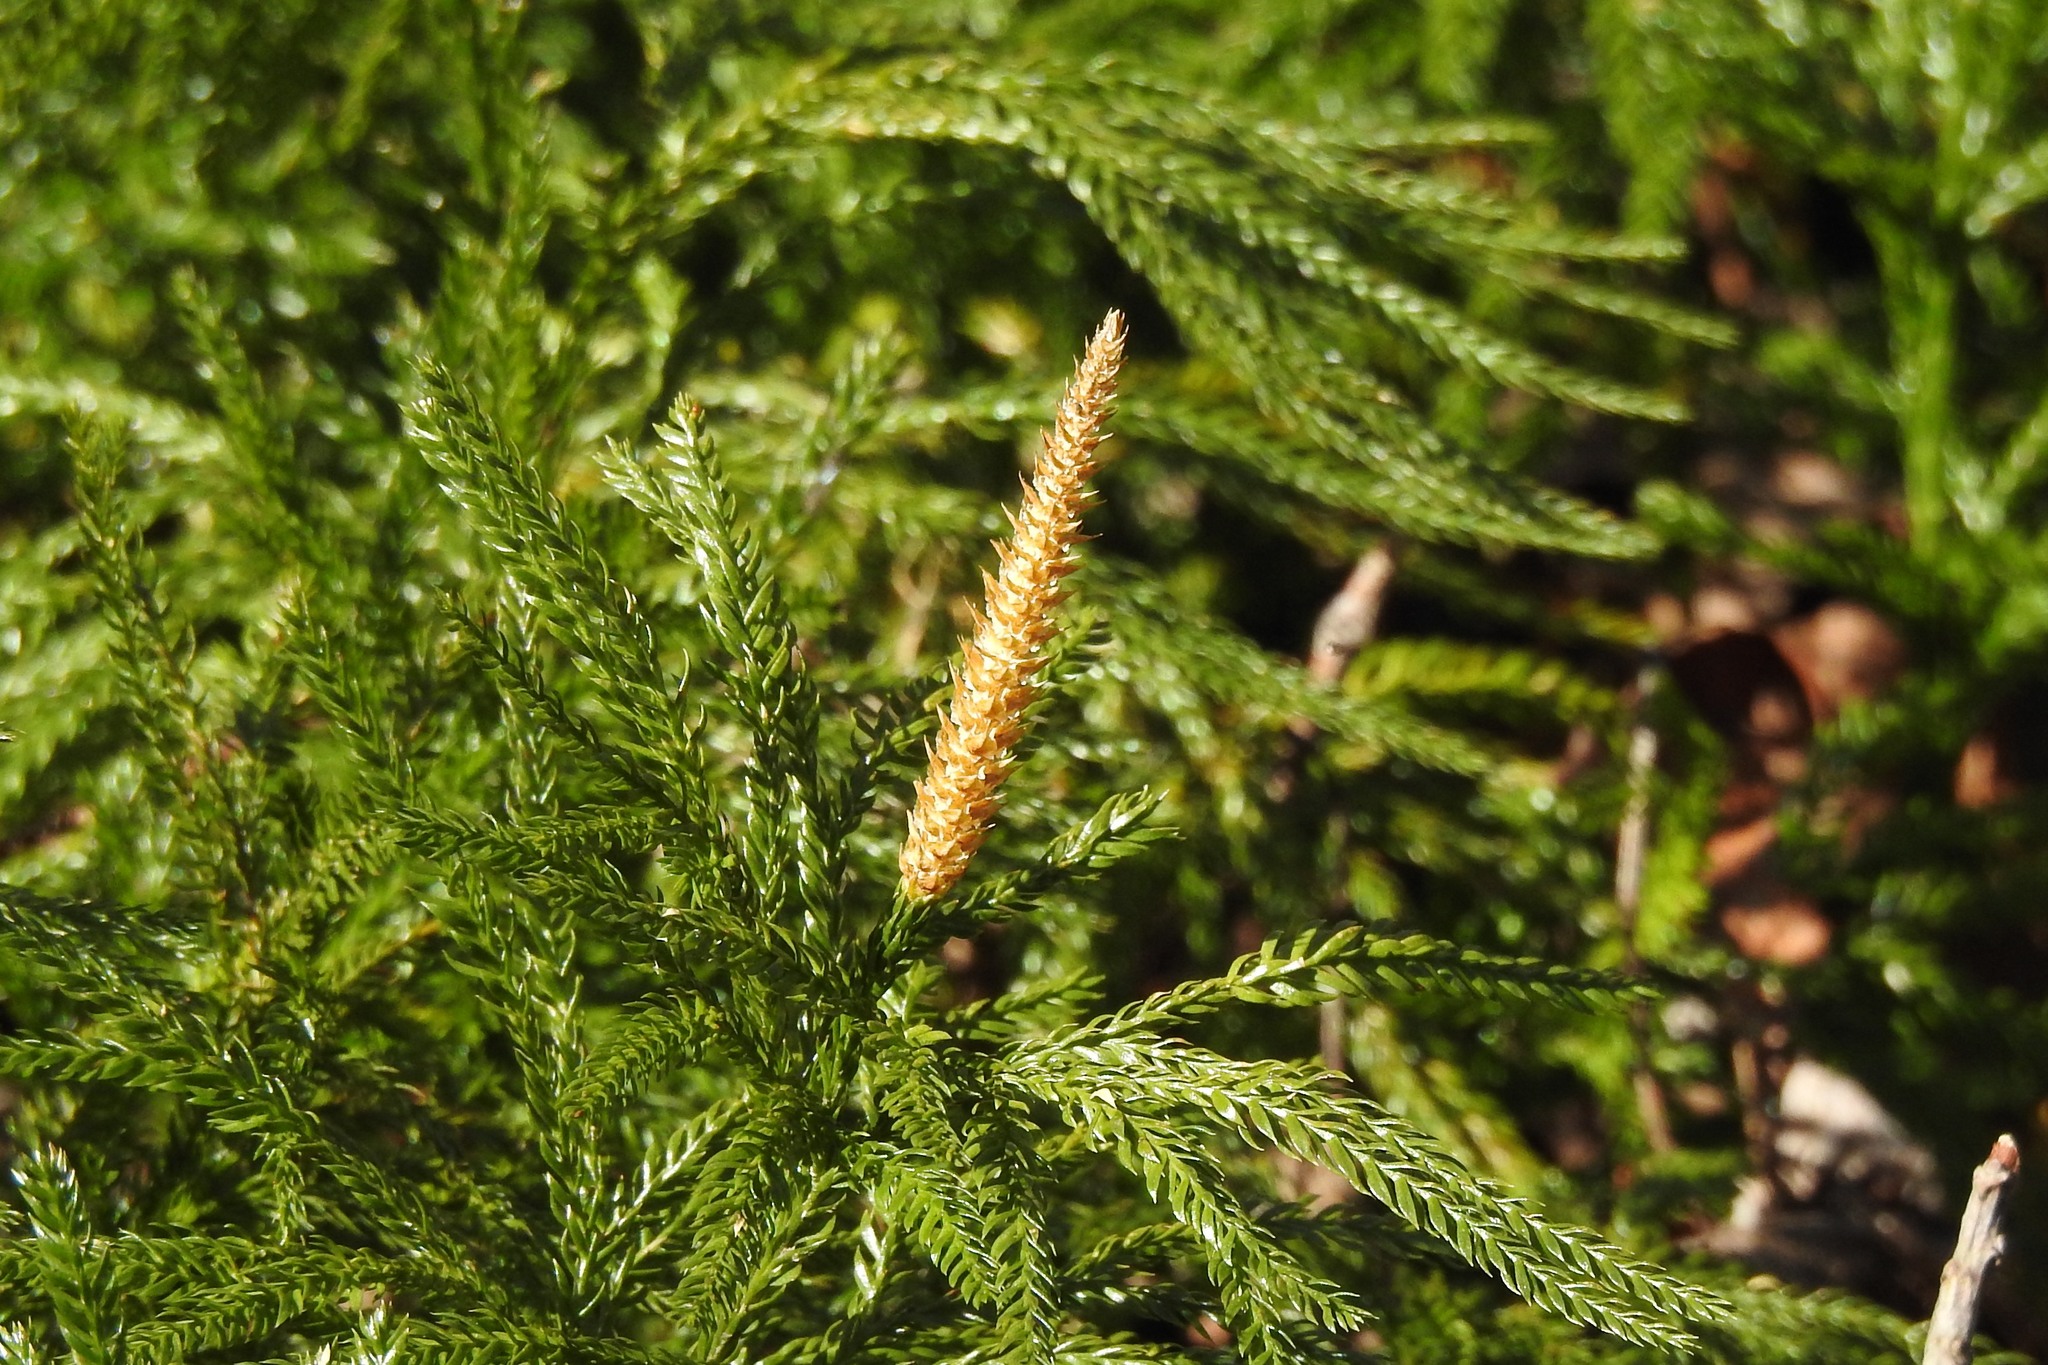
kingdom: Plantae
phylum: Tracheophyta
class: Lycopodiopsida
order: Lycopodiales
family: Lycopodiaceae
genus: Dendrolycopodium
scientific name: Dendrolycopodium obscurum
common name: Common ground-pine
